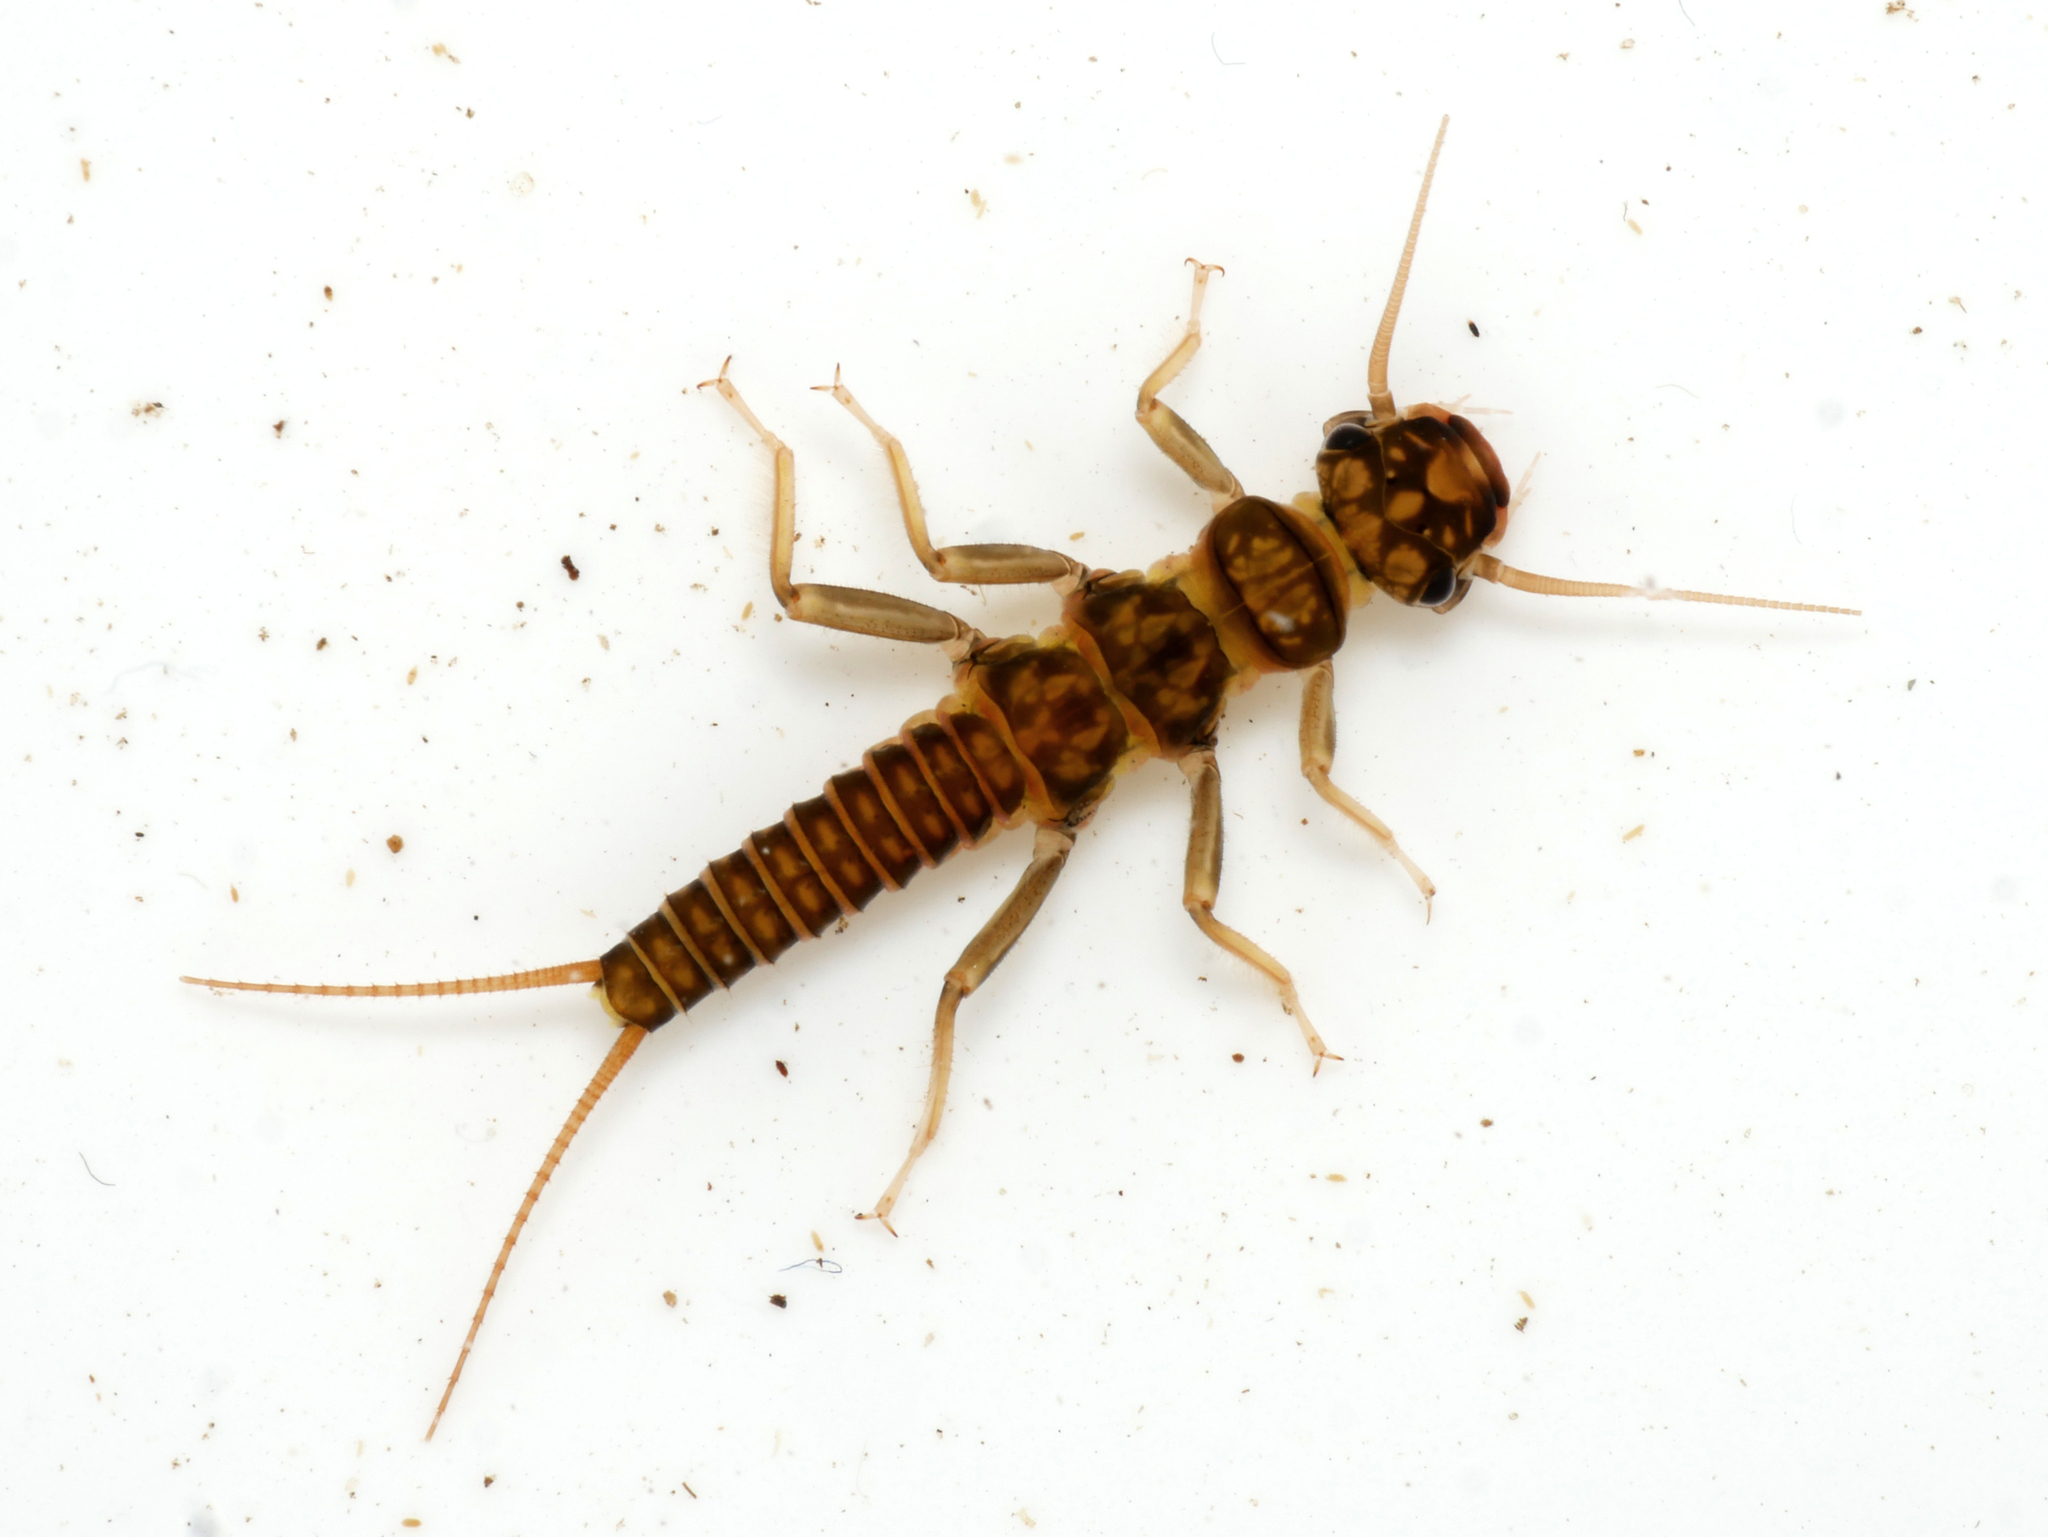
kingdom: Animalia
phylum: Arthropoda
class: Insecta
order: Plecoptera
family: Perlodidae
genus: Perlodes
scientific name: Perlodes microcephalus
